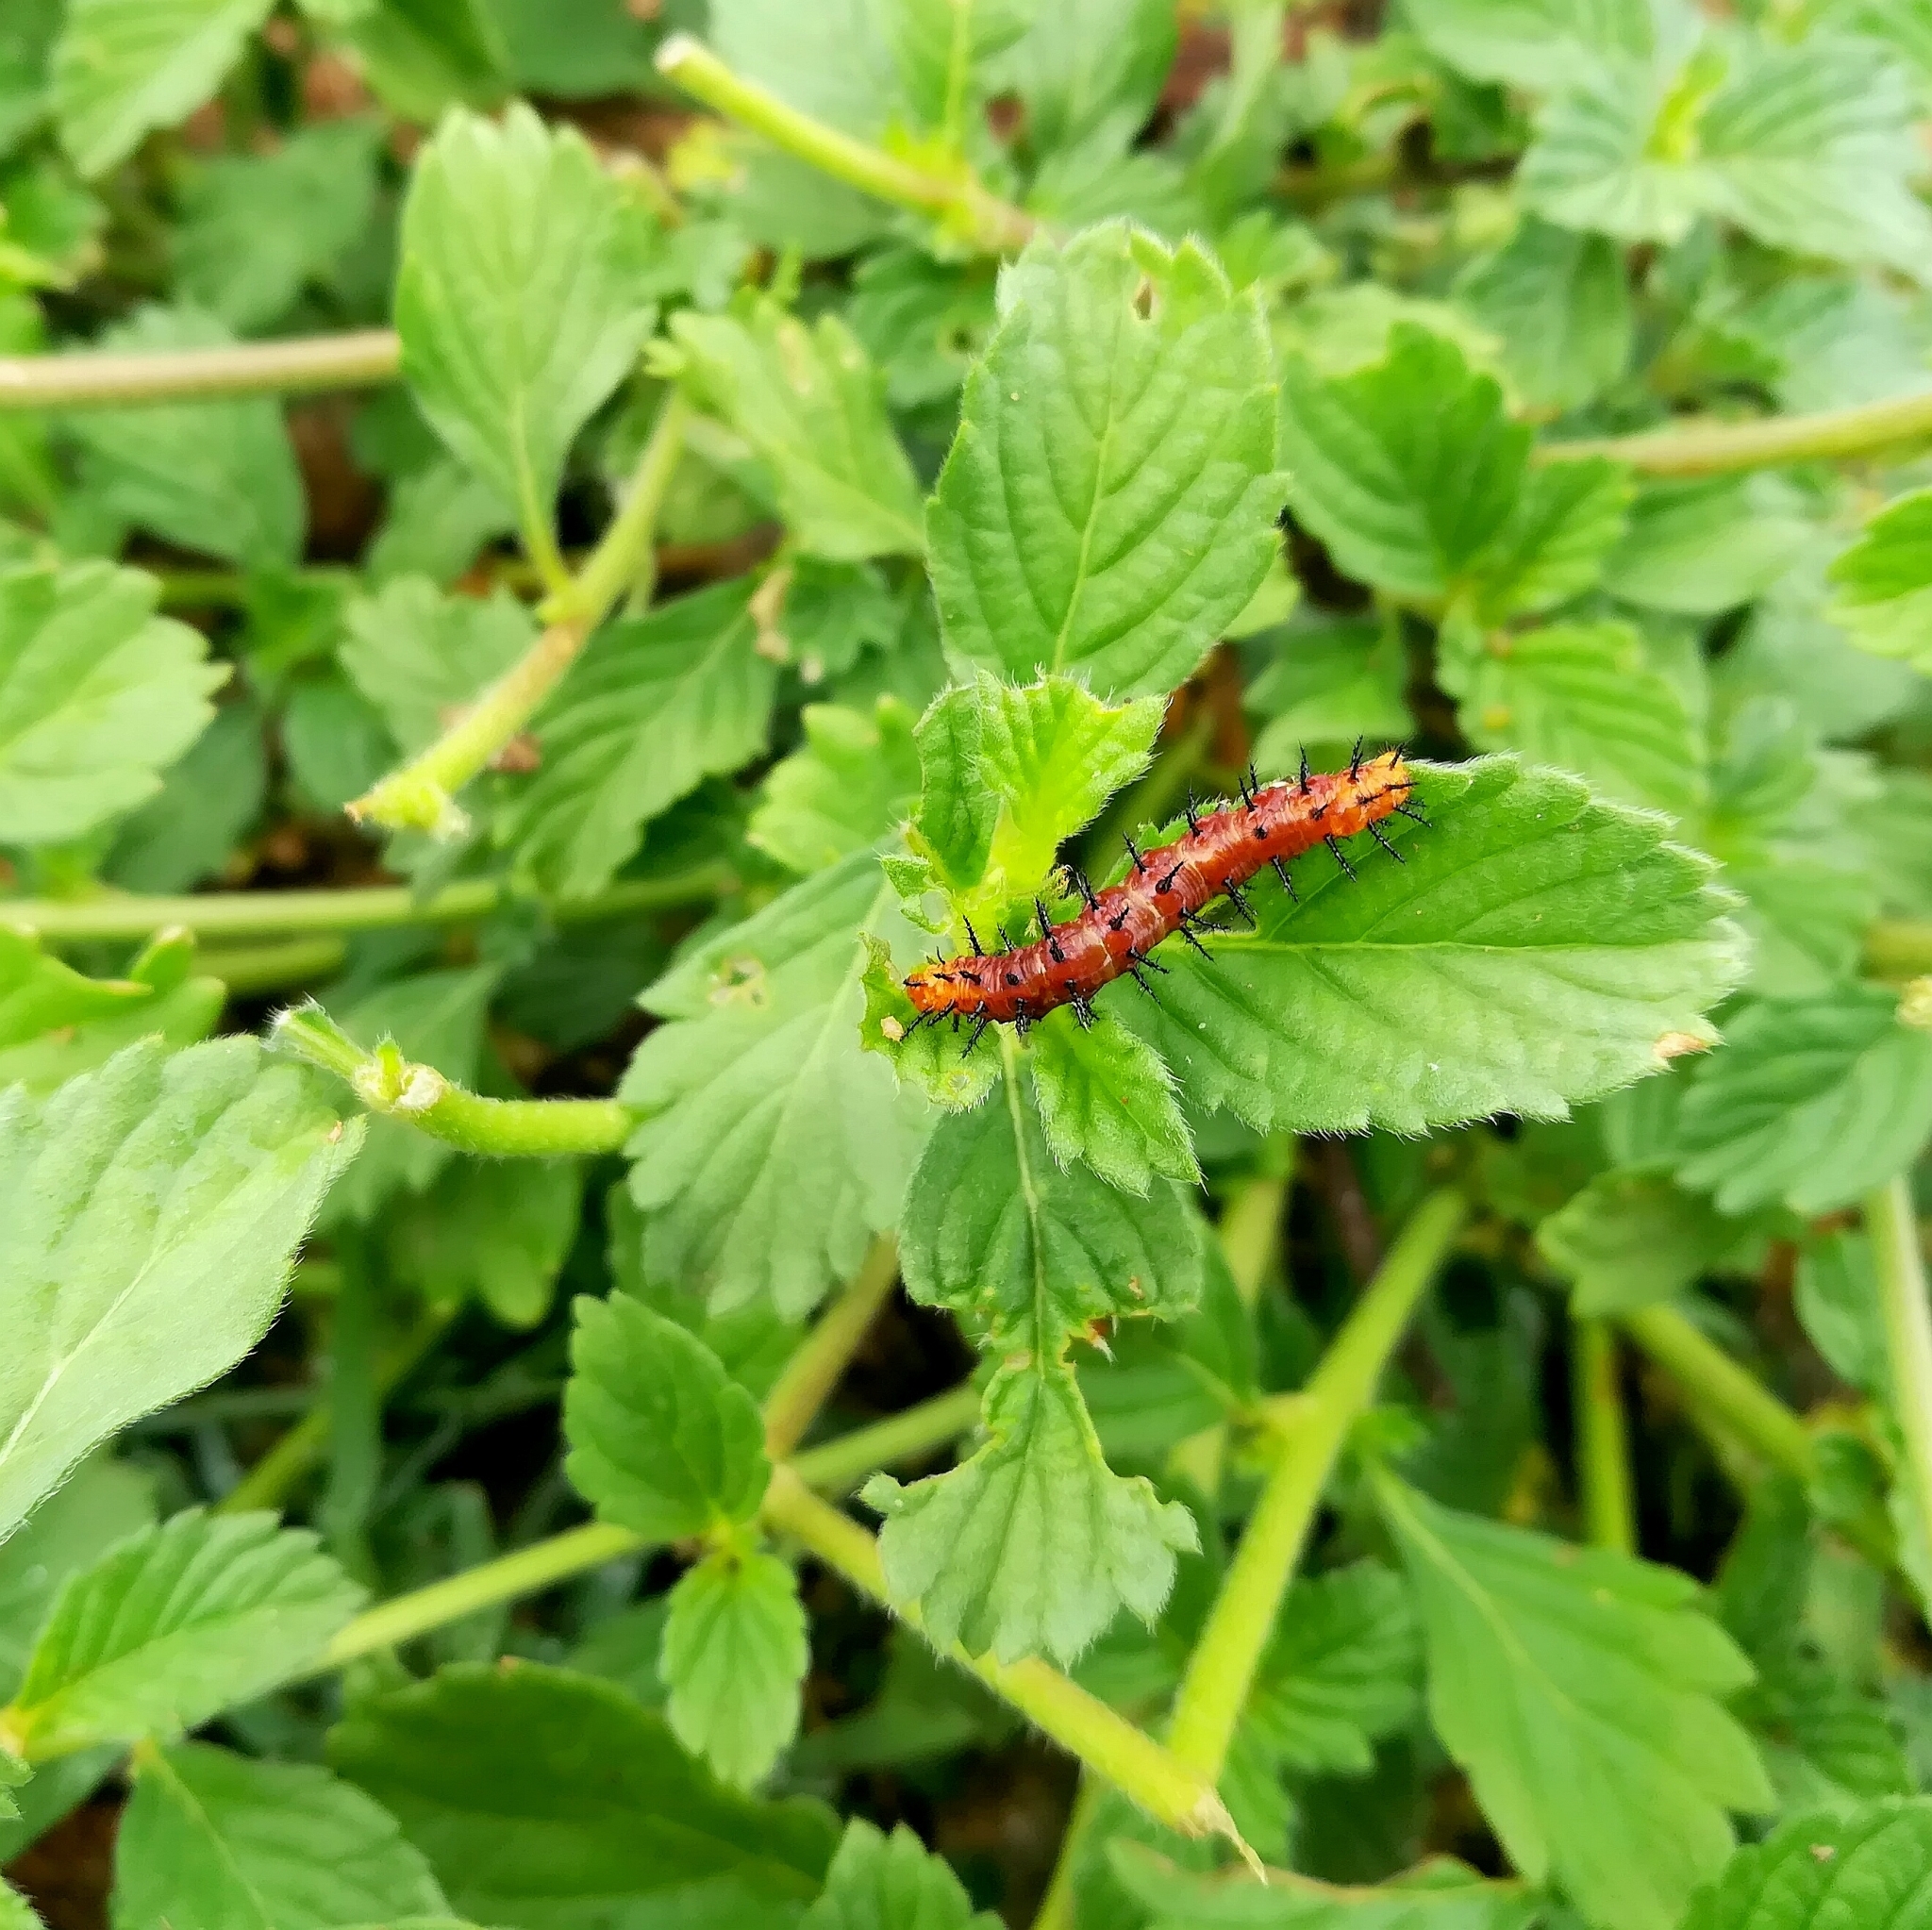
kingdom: Animalia
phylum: Arthropoda
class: Insecta
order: Lepidoptera
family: Nymphalidae
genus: Acraea
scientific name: Acraea terpsicore
